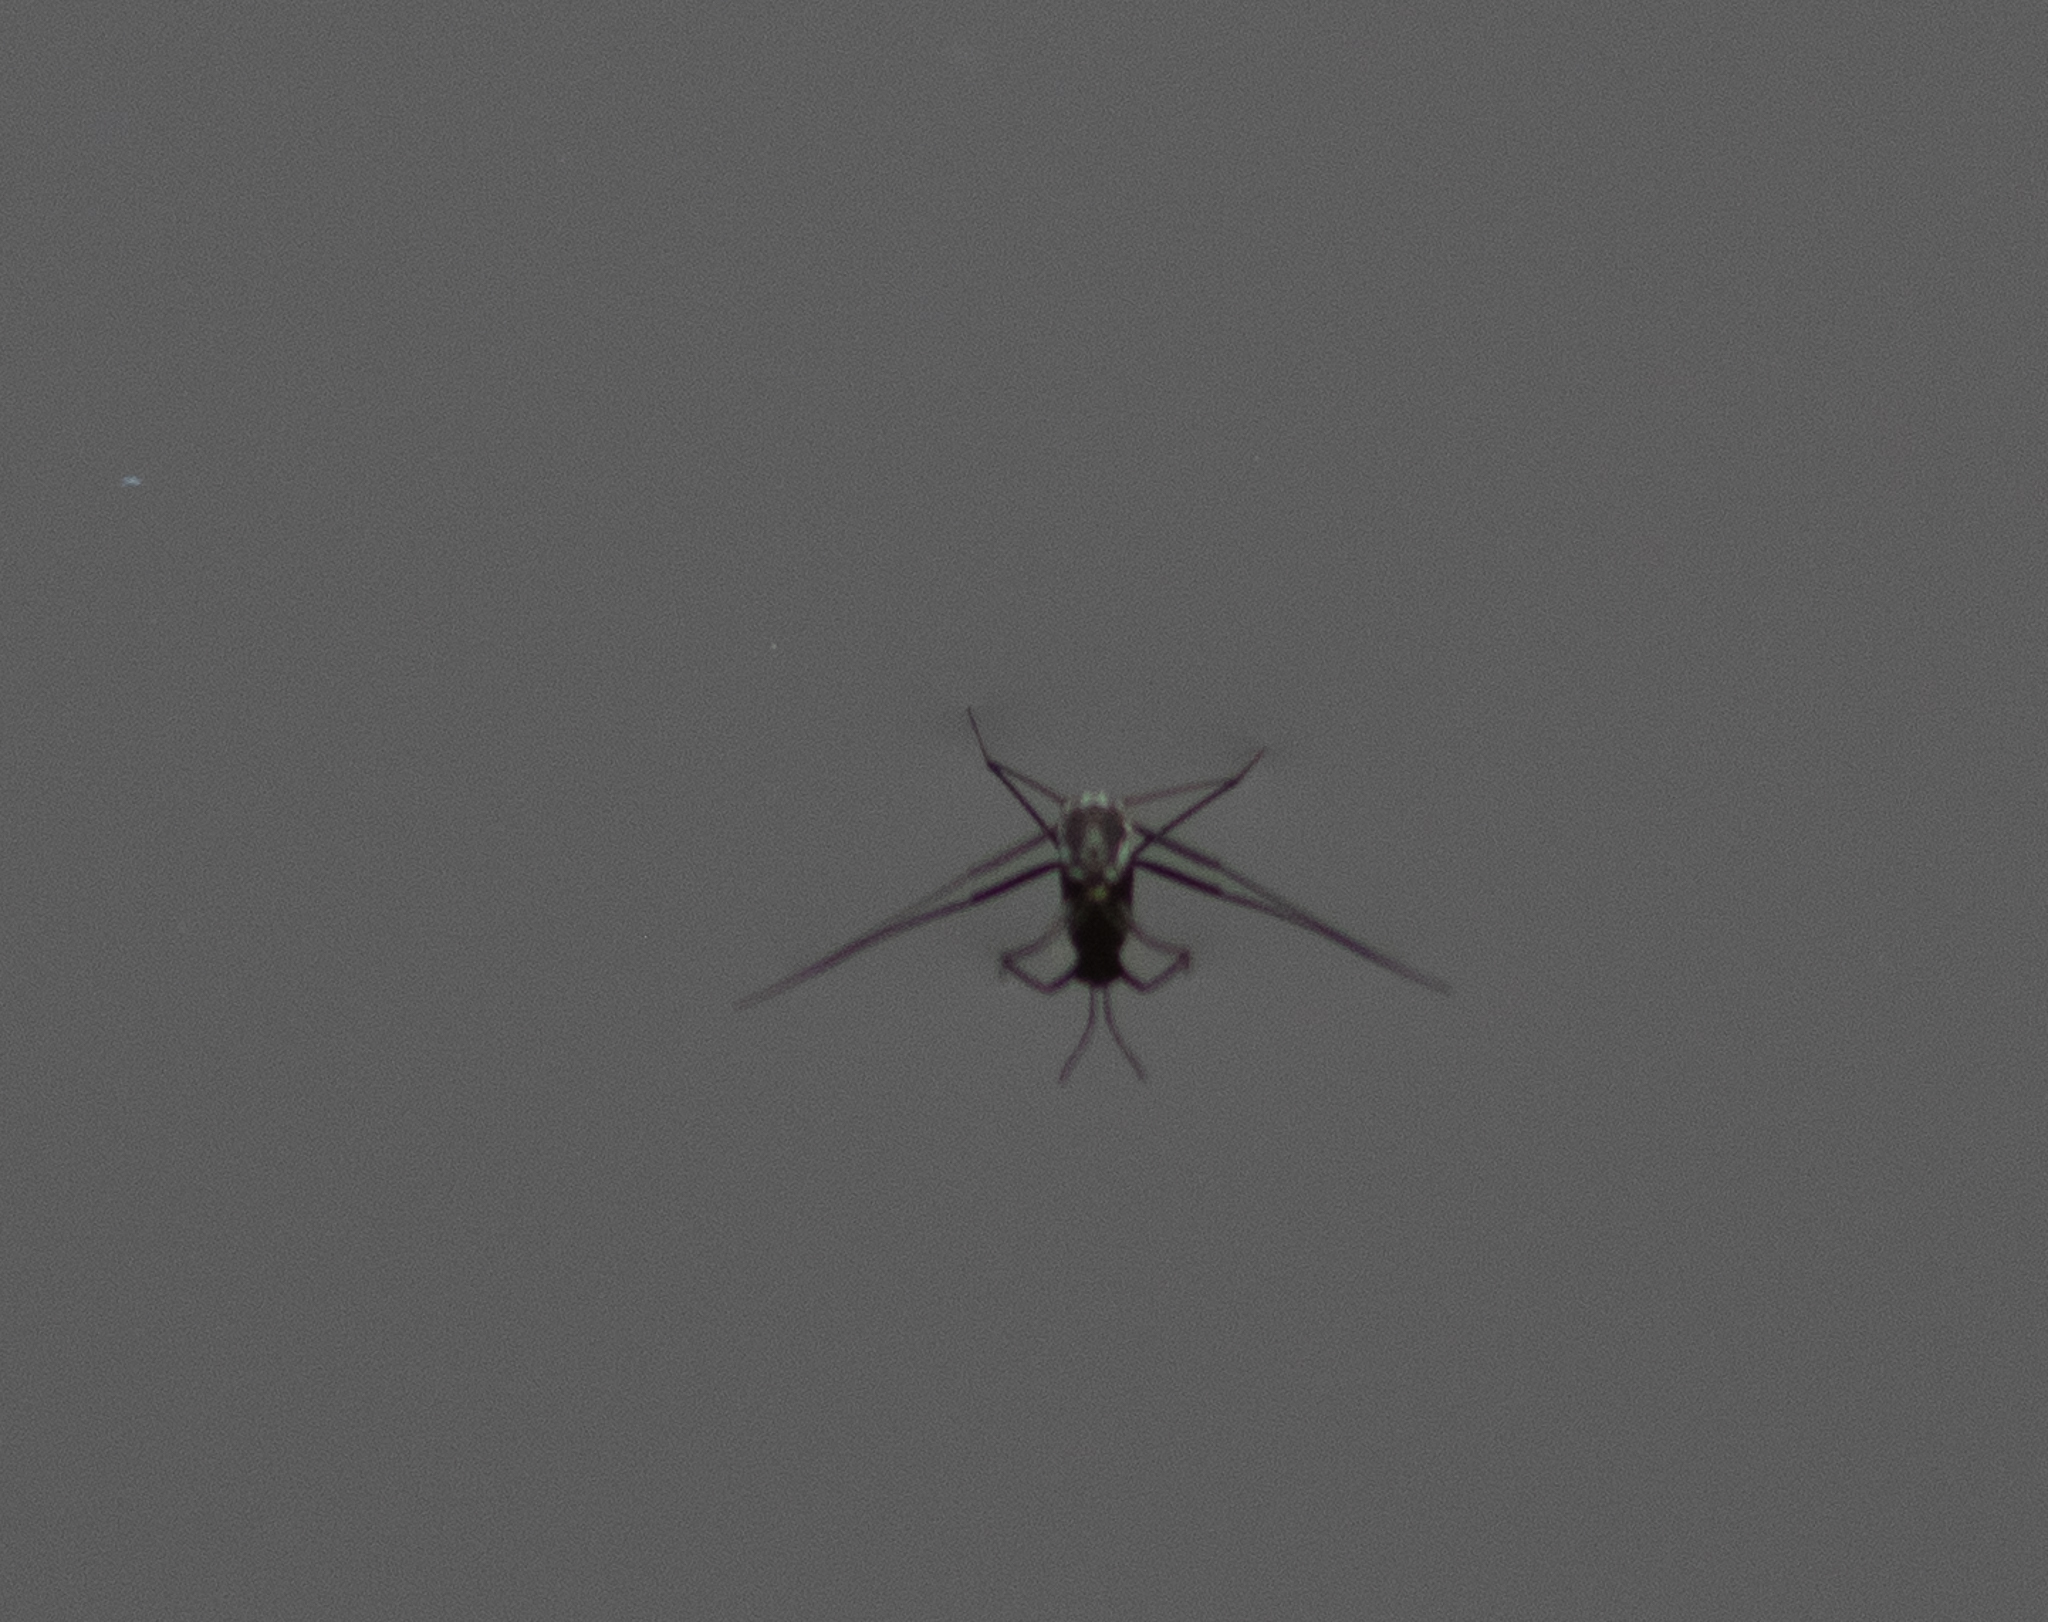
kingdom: Animalia
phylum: Arthropoda
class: Insecta
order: Hemiptera
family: Gerridae
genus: Metrobates
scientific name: Metrobates hesperius
